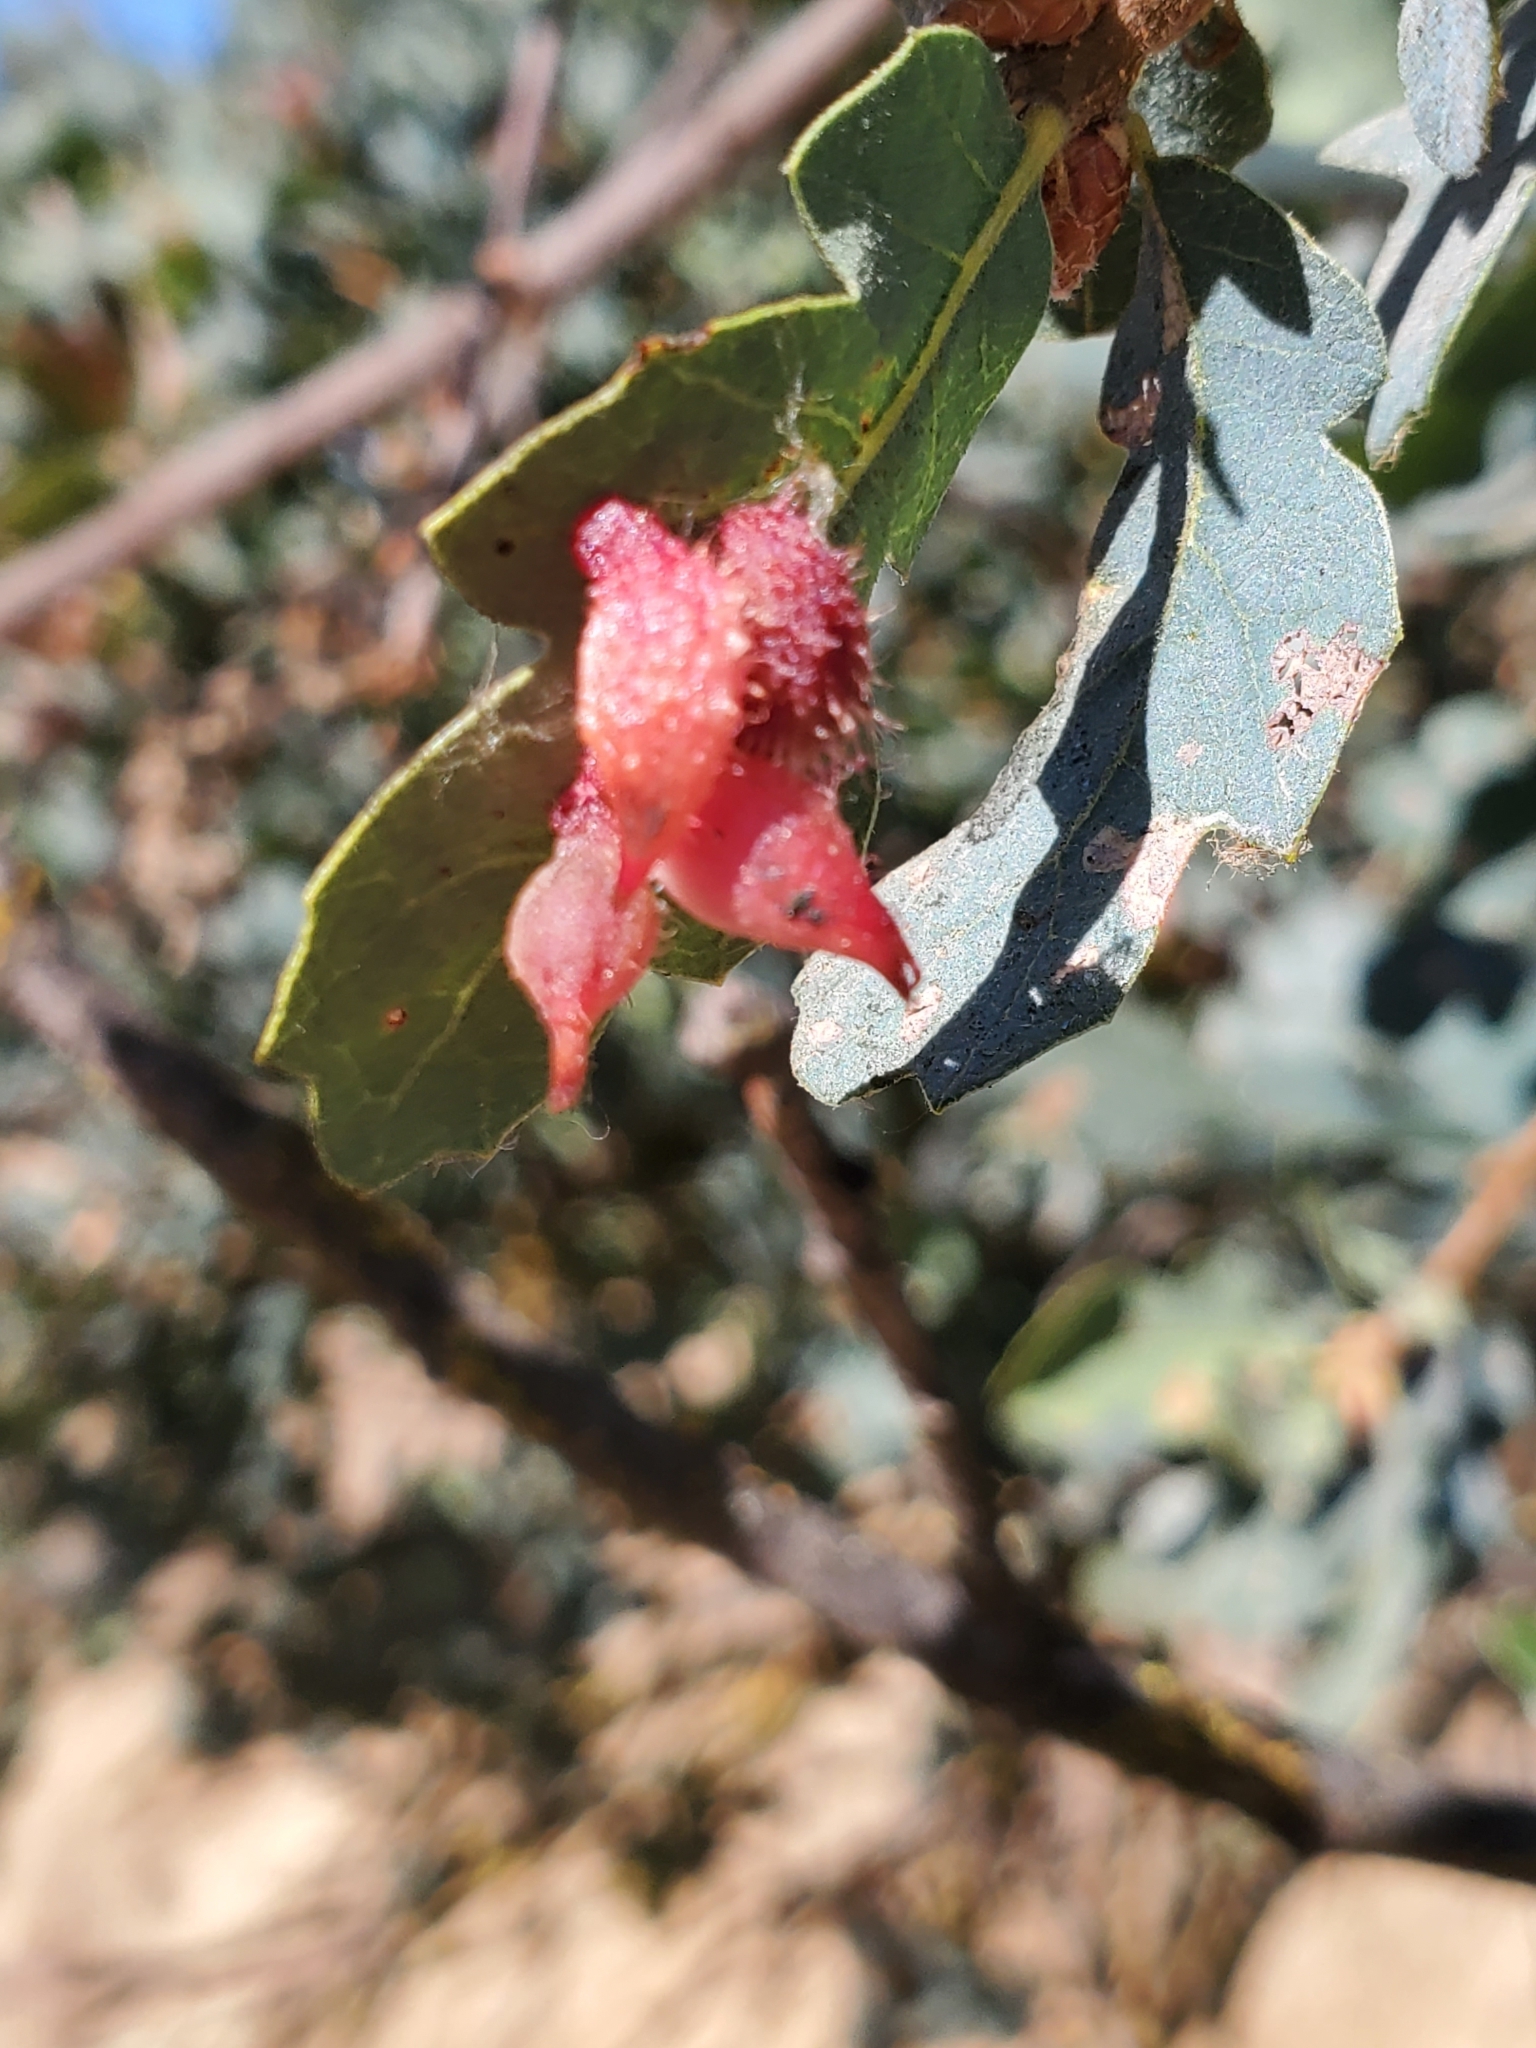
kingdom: Animalia
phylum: Arthropoda
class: Insecta
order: Hymenoptera
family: Cynipidae
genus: Andricus
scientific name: Andricus
